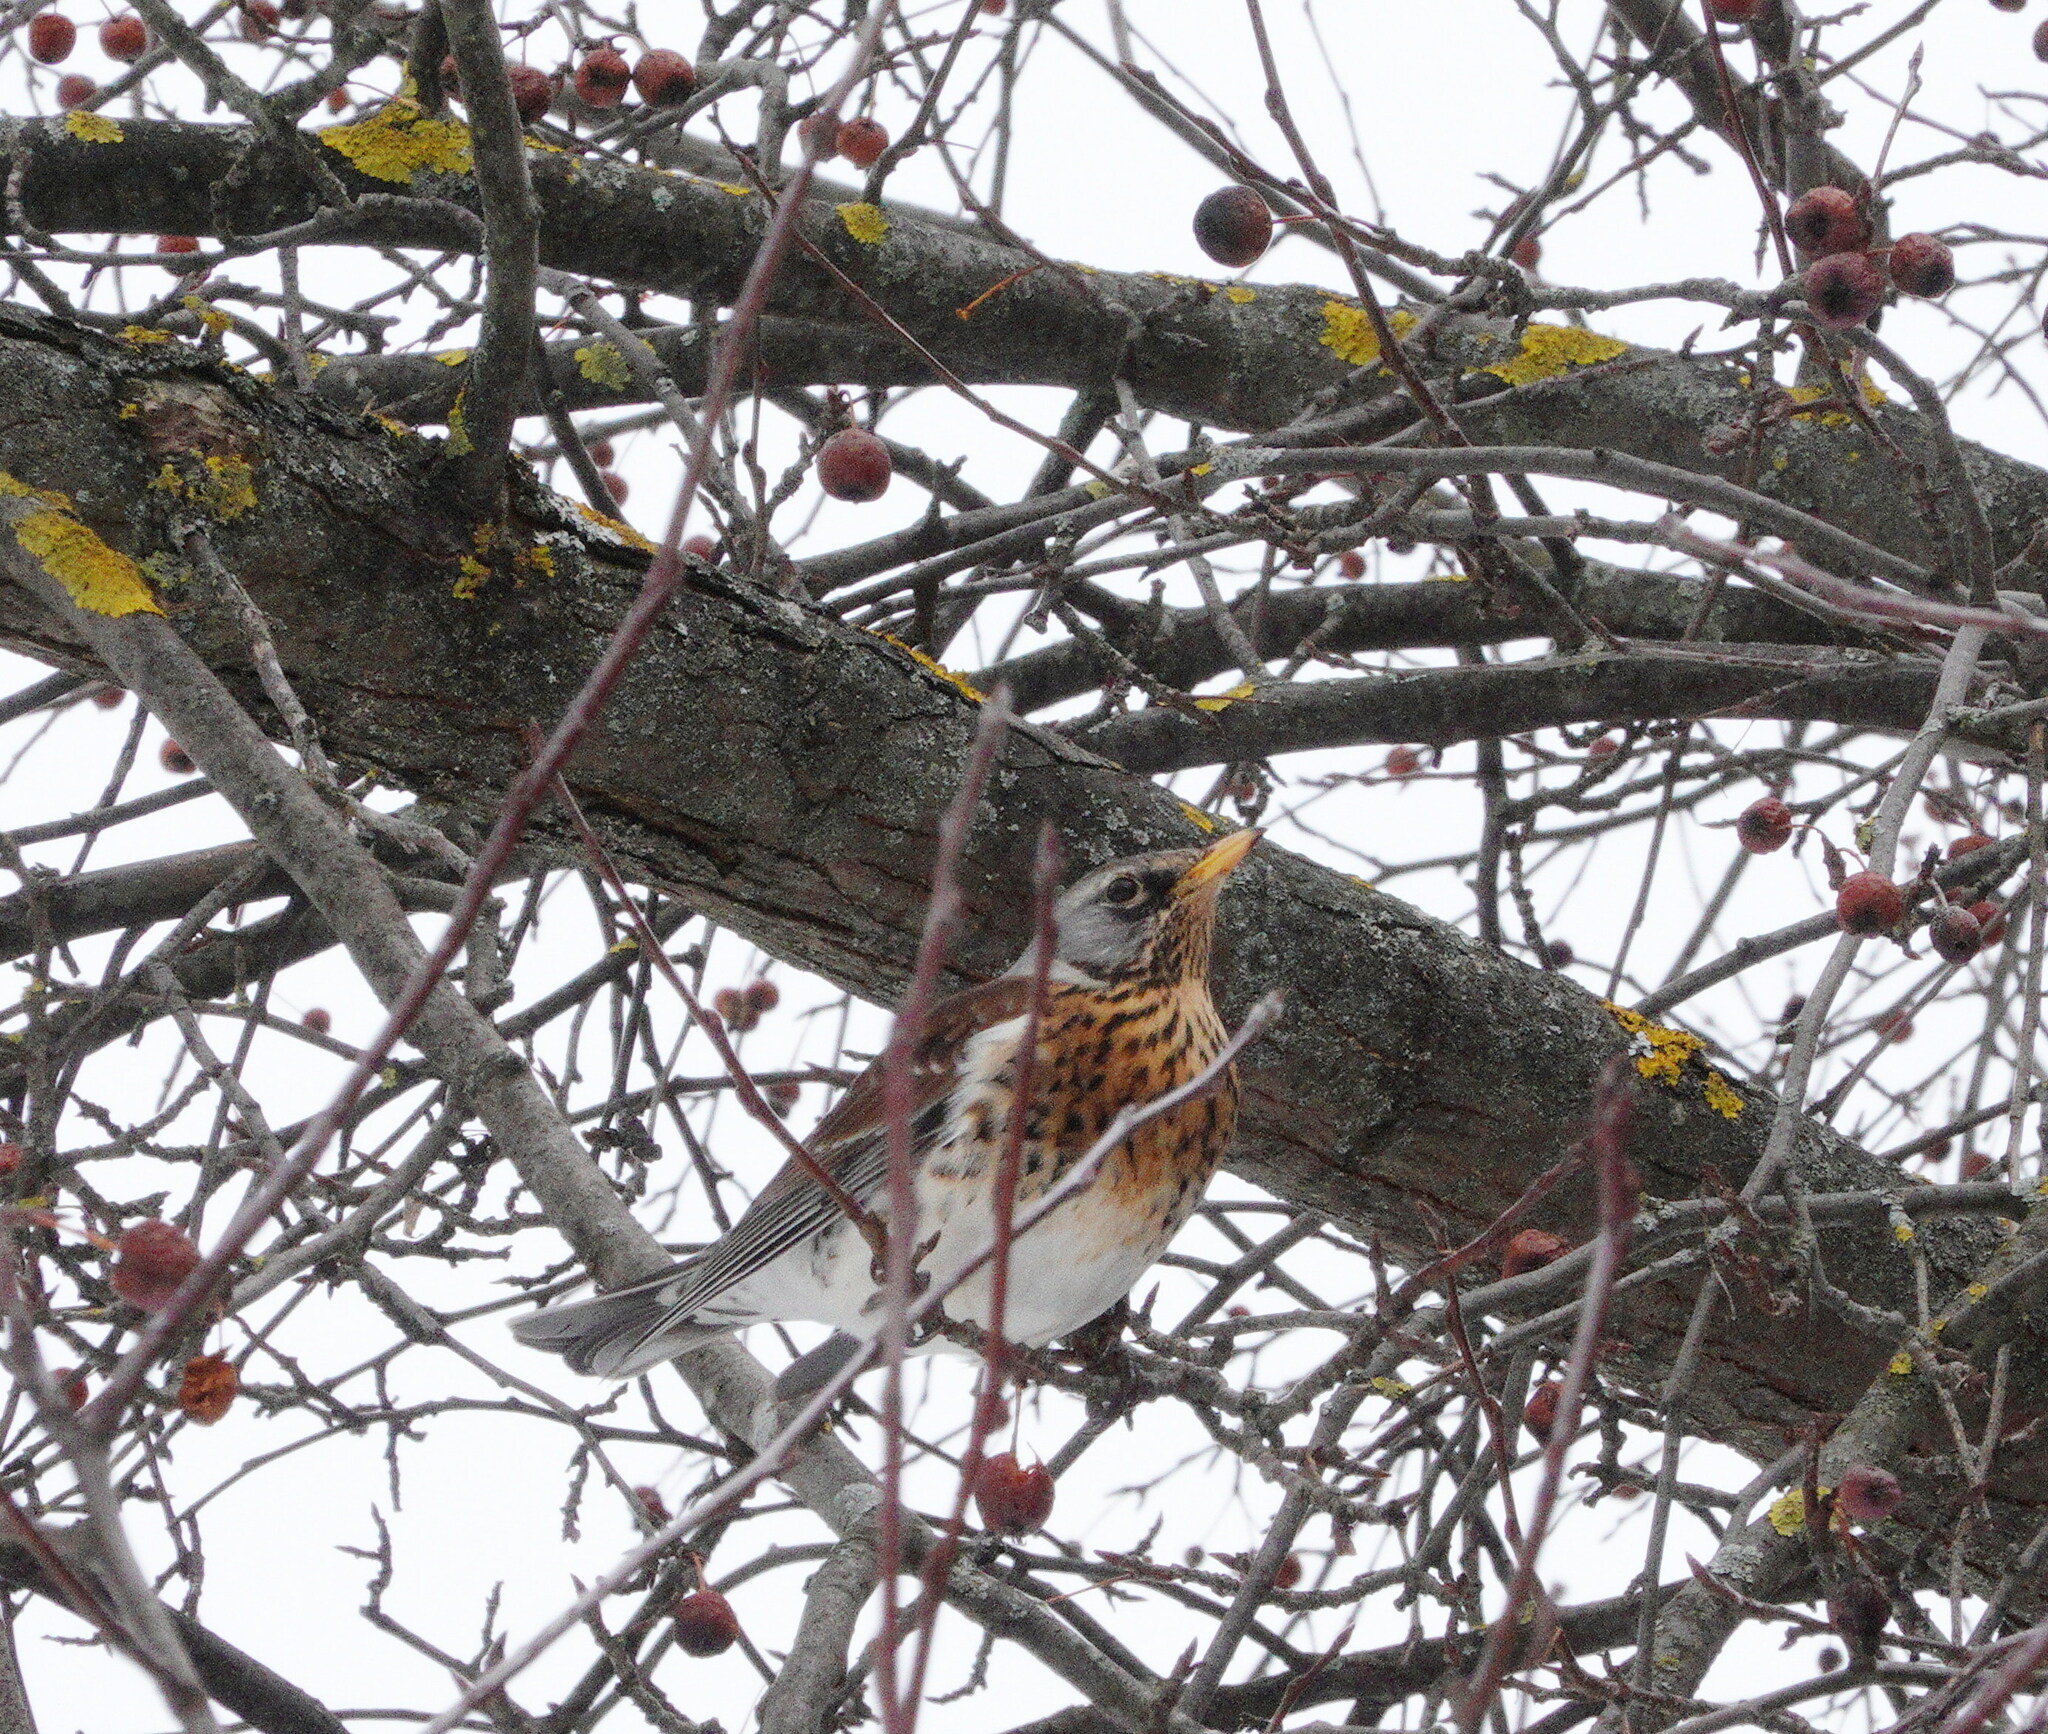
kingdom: Animalia
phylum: Chordata
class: Aves
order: Passeriformes
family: Turdidae
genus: Turdus
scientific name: Turdus pilaris
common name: Fieldfare
